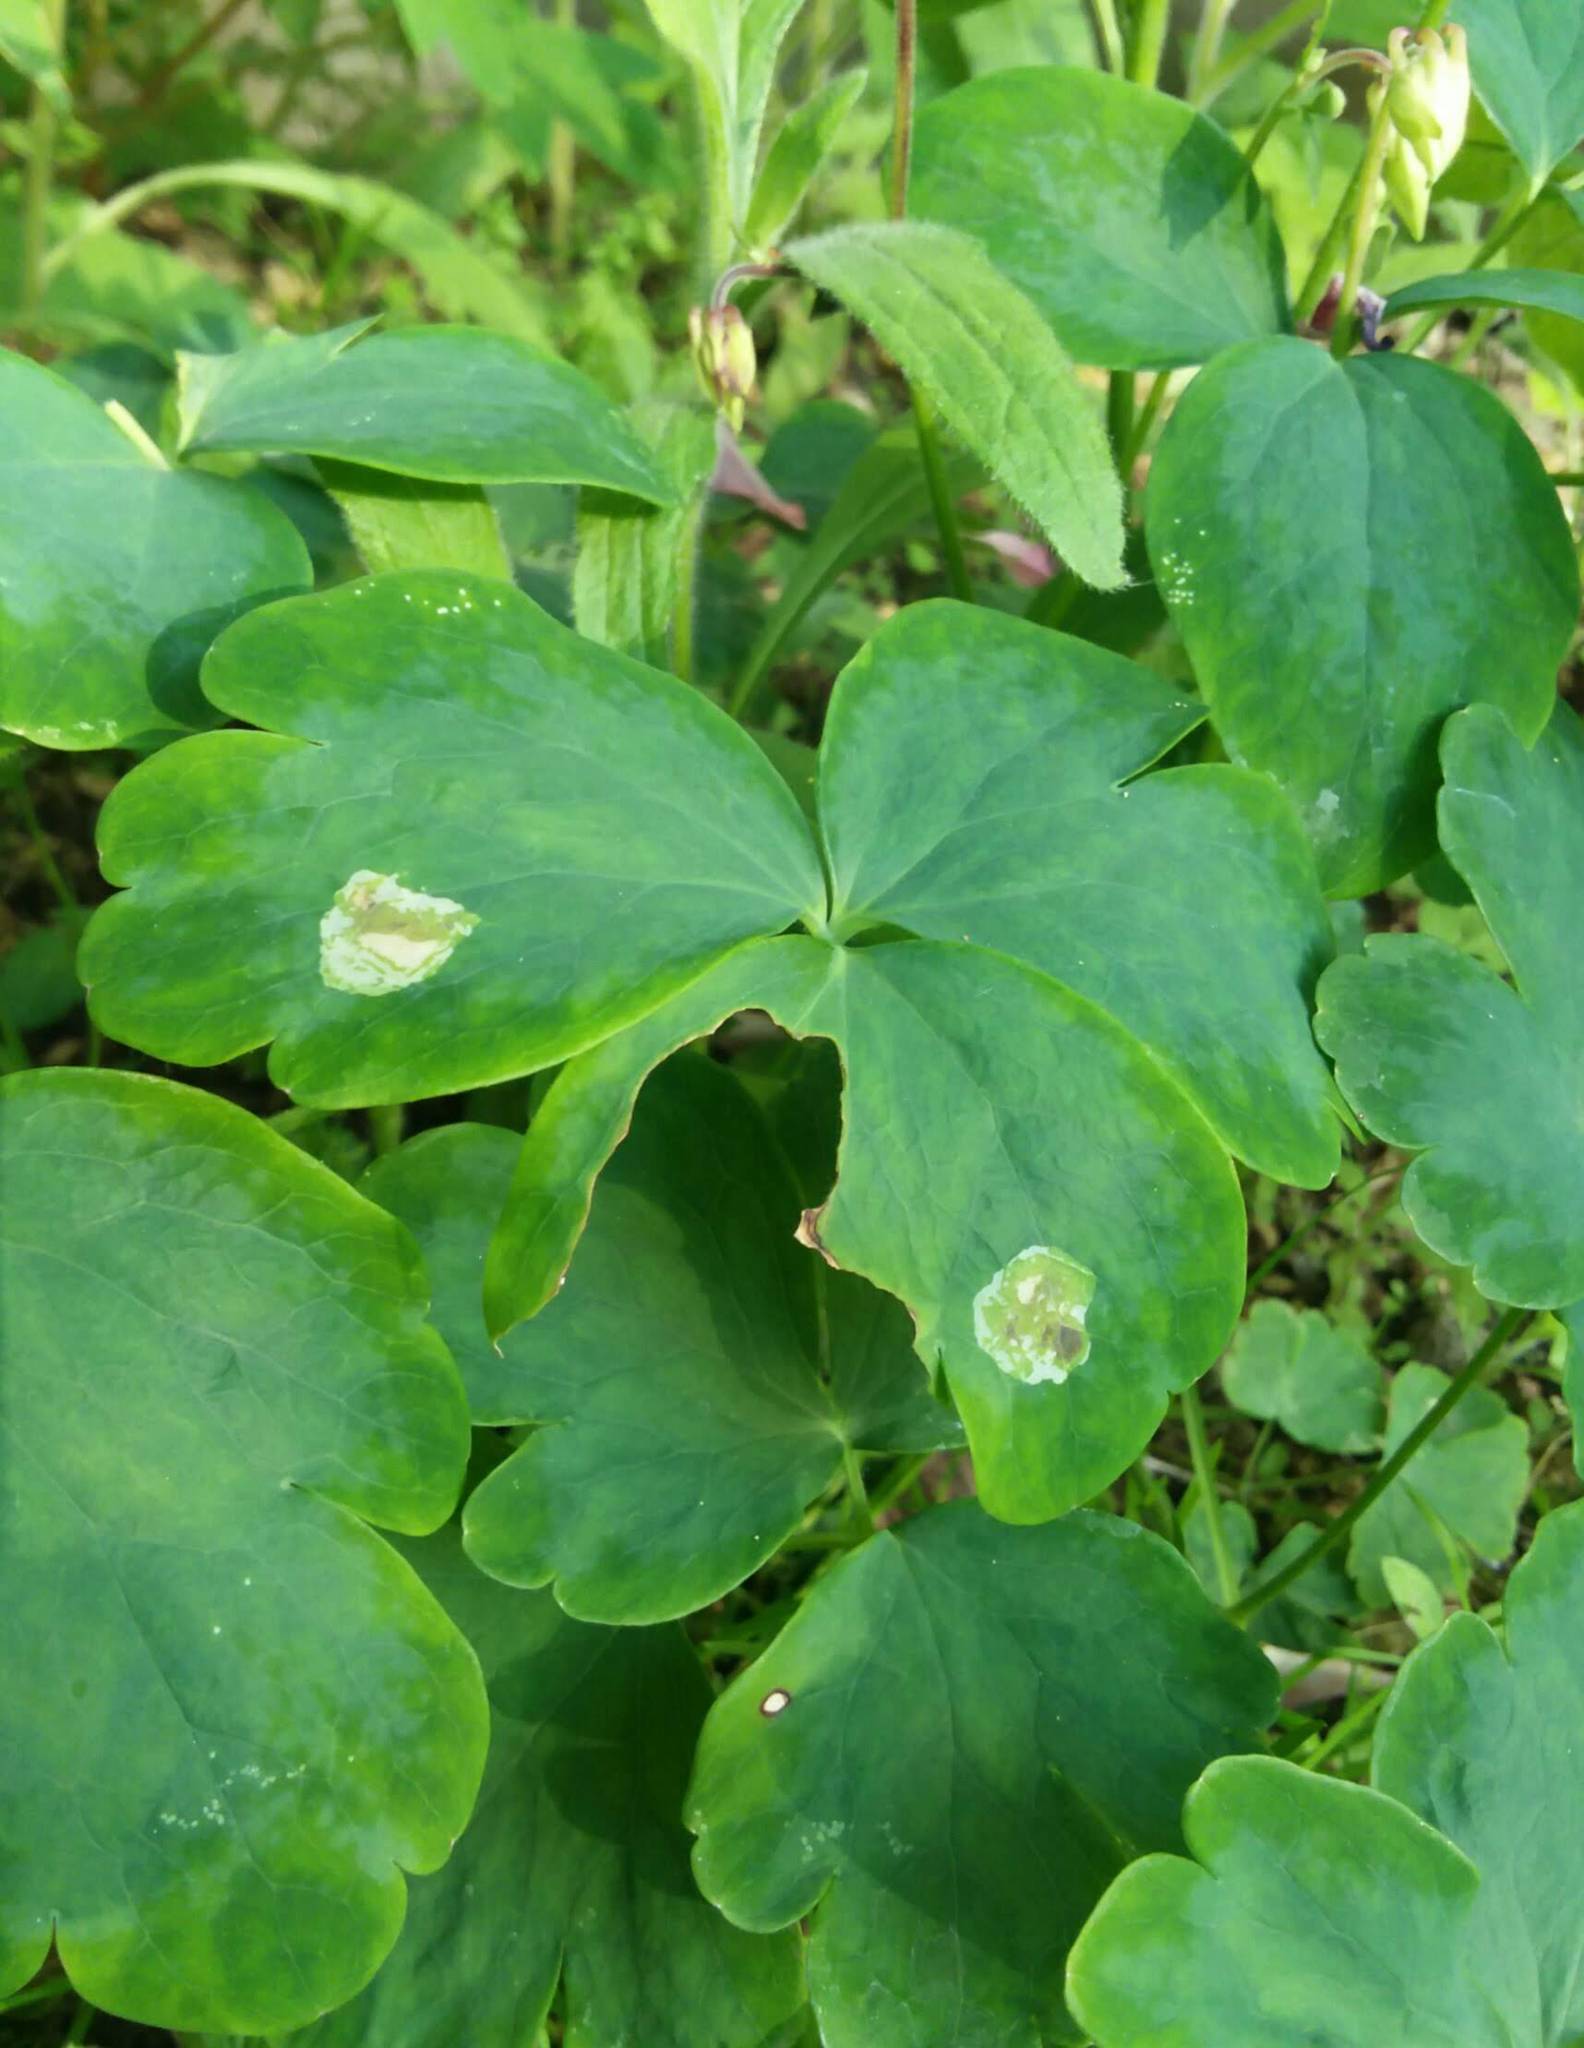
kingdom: Animalia
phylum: Arthropoda
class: Insecta
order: Diptera
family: Agromyzidae
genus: Phytomyza
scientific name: Phytomyza aquilegiana
